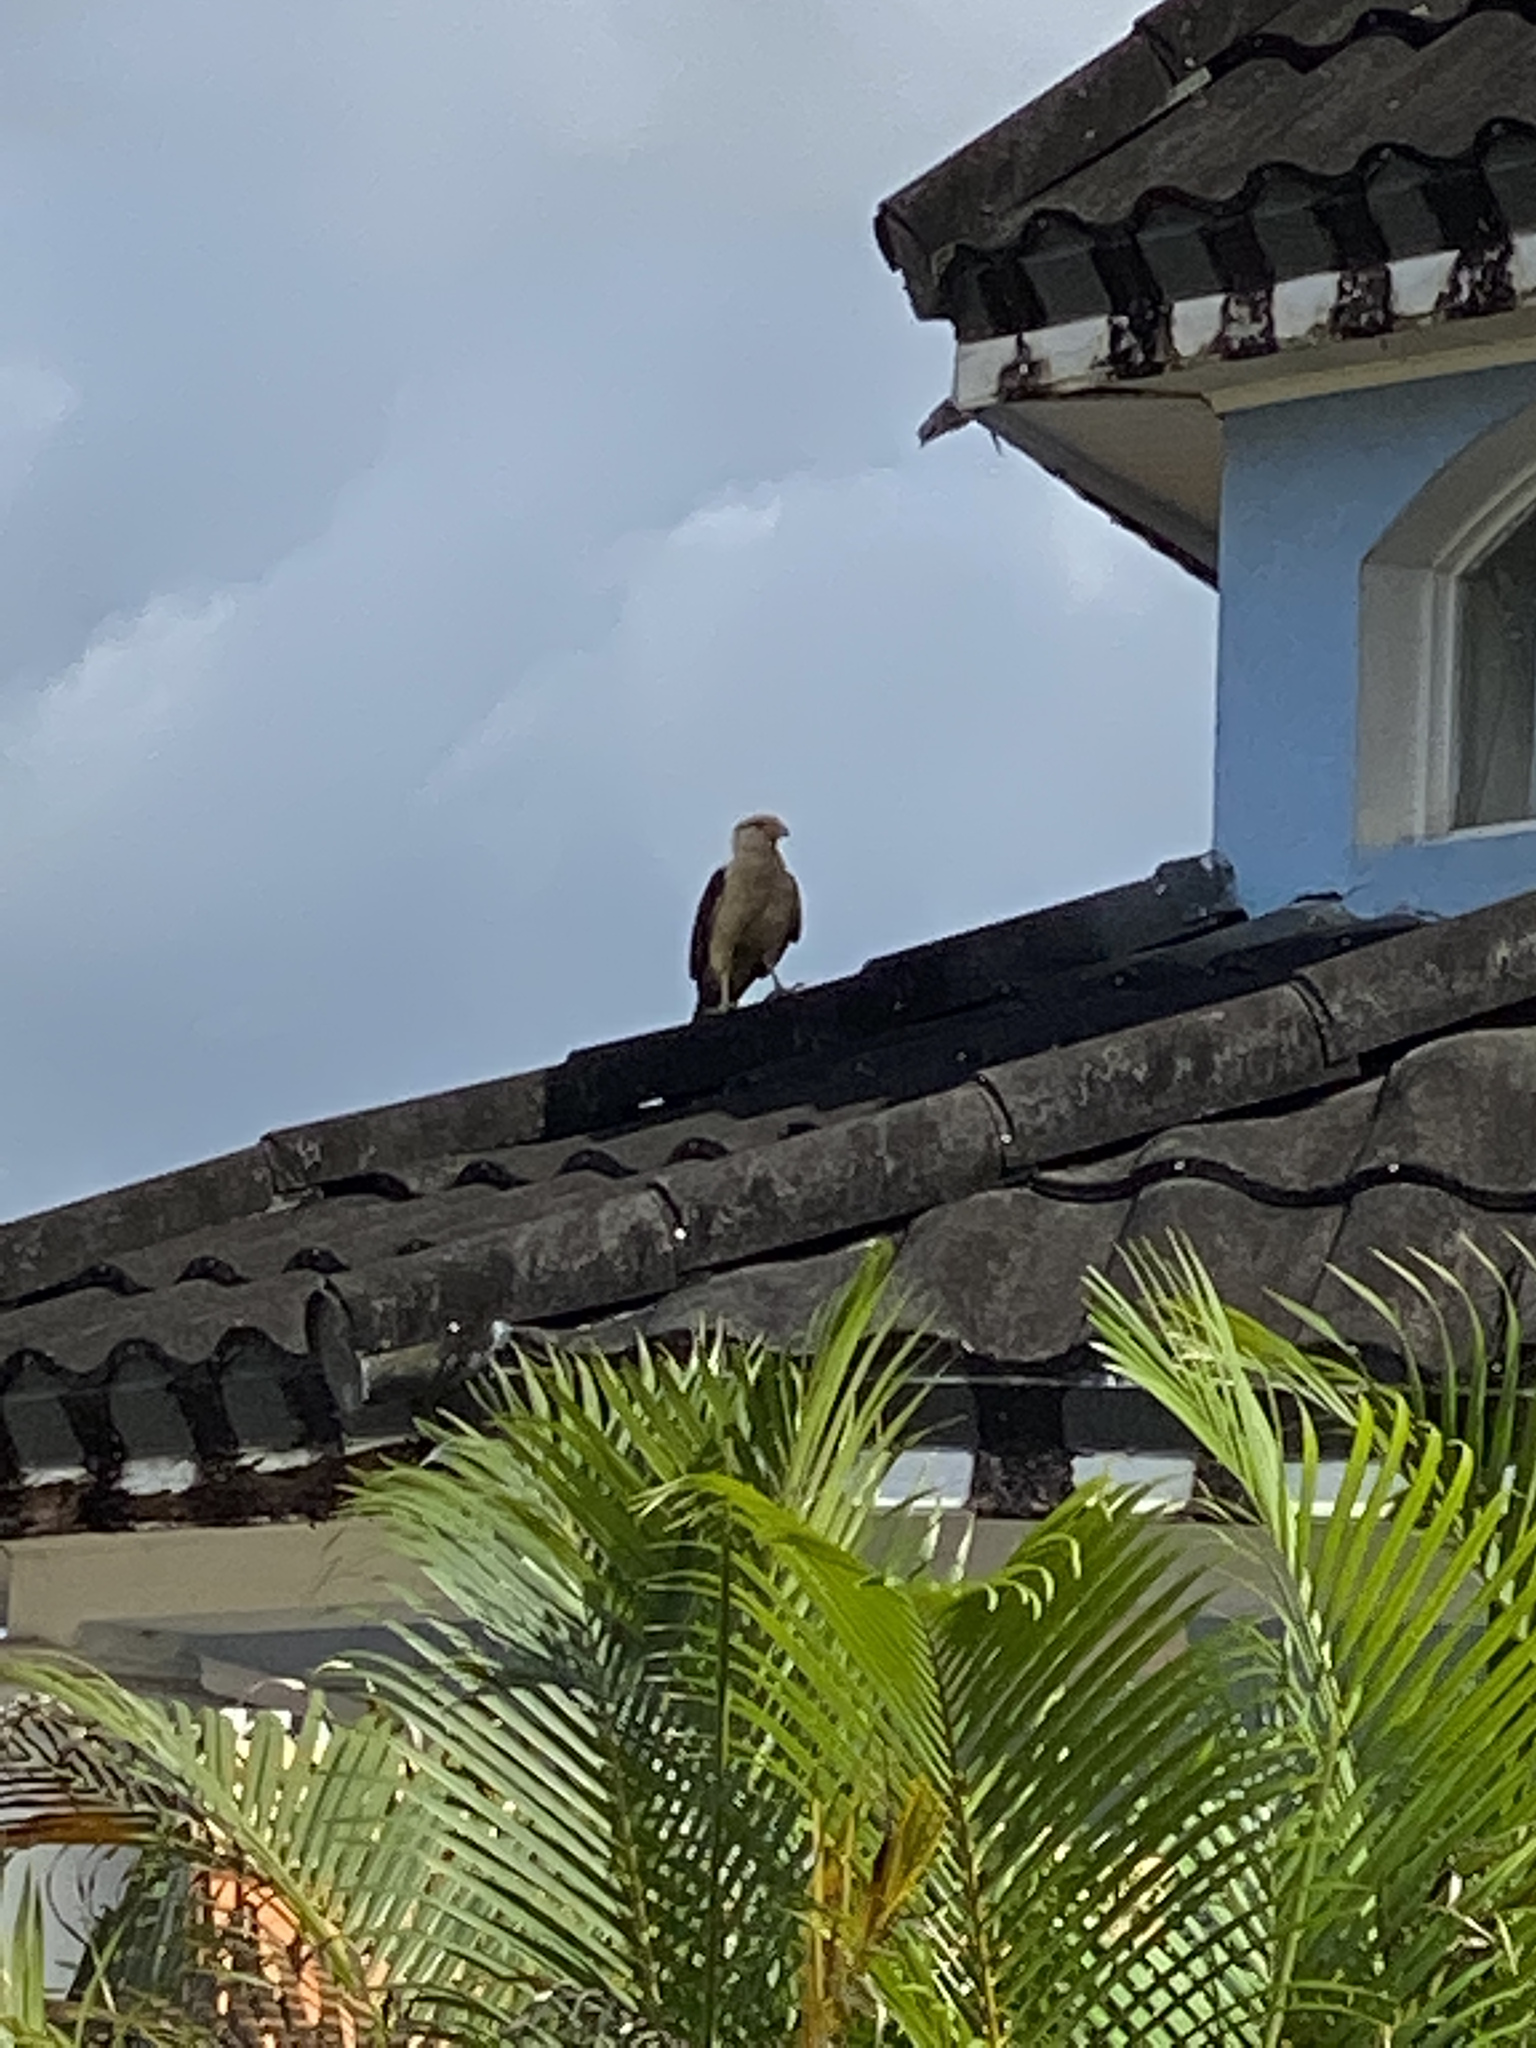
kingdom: Animalia
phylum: Chordata
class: Aves
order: Falconiformes
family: Falconidae
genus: Daptrius
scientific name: Daptrius
